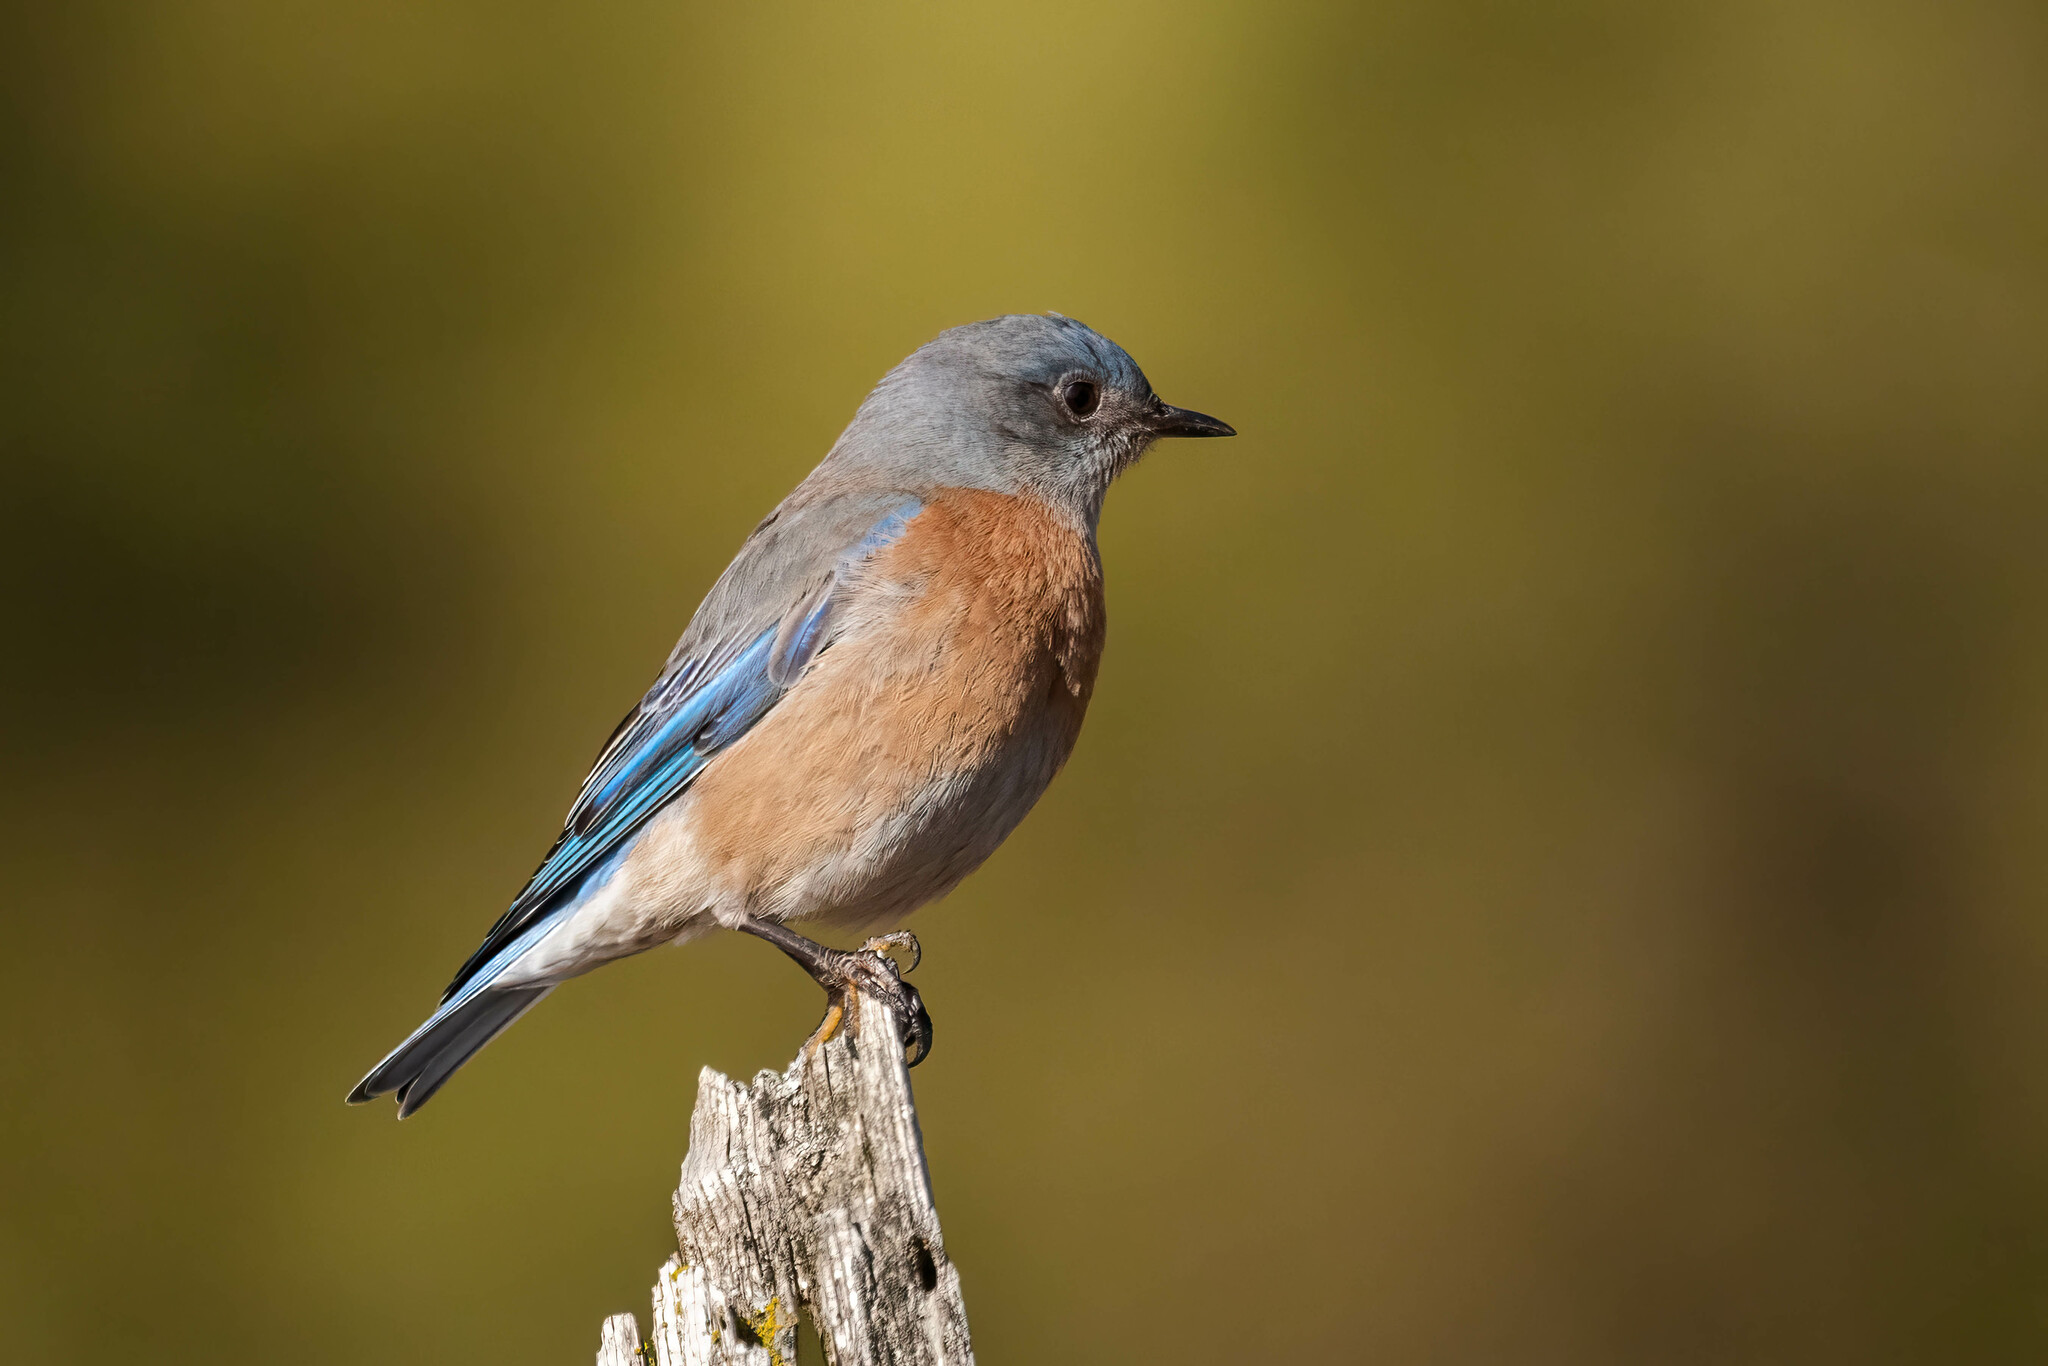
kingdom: Animalia
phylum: Chordata
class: Aves
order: Passeriformes
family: Turdidae
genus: Sialia
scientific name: Sialia mexicana
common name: Western bluebird
